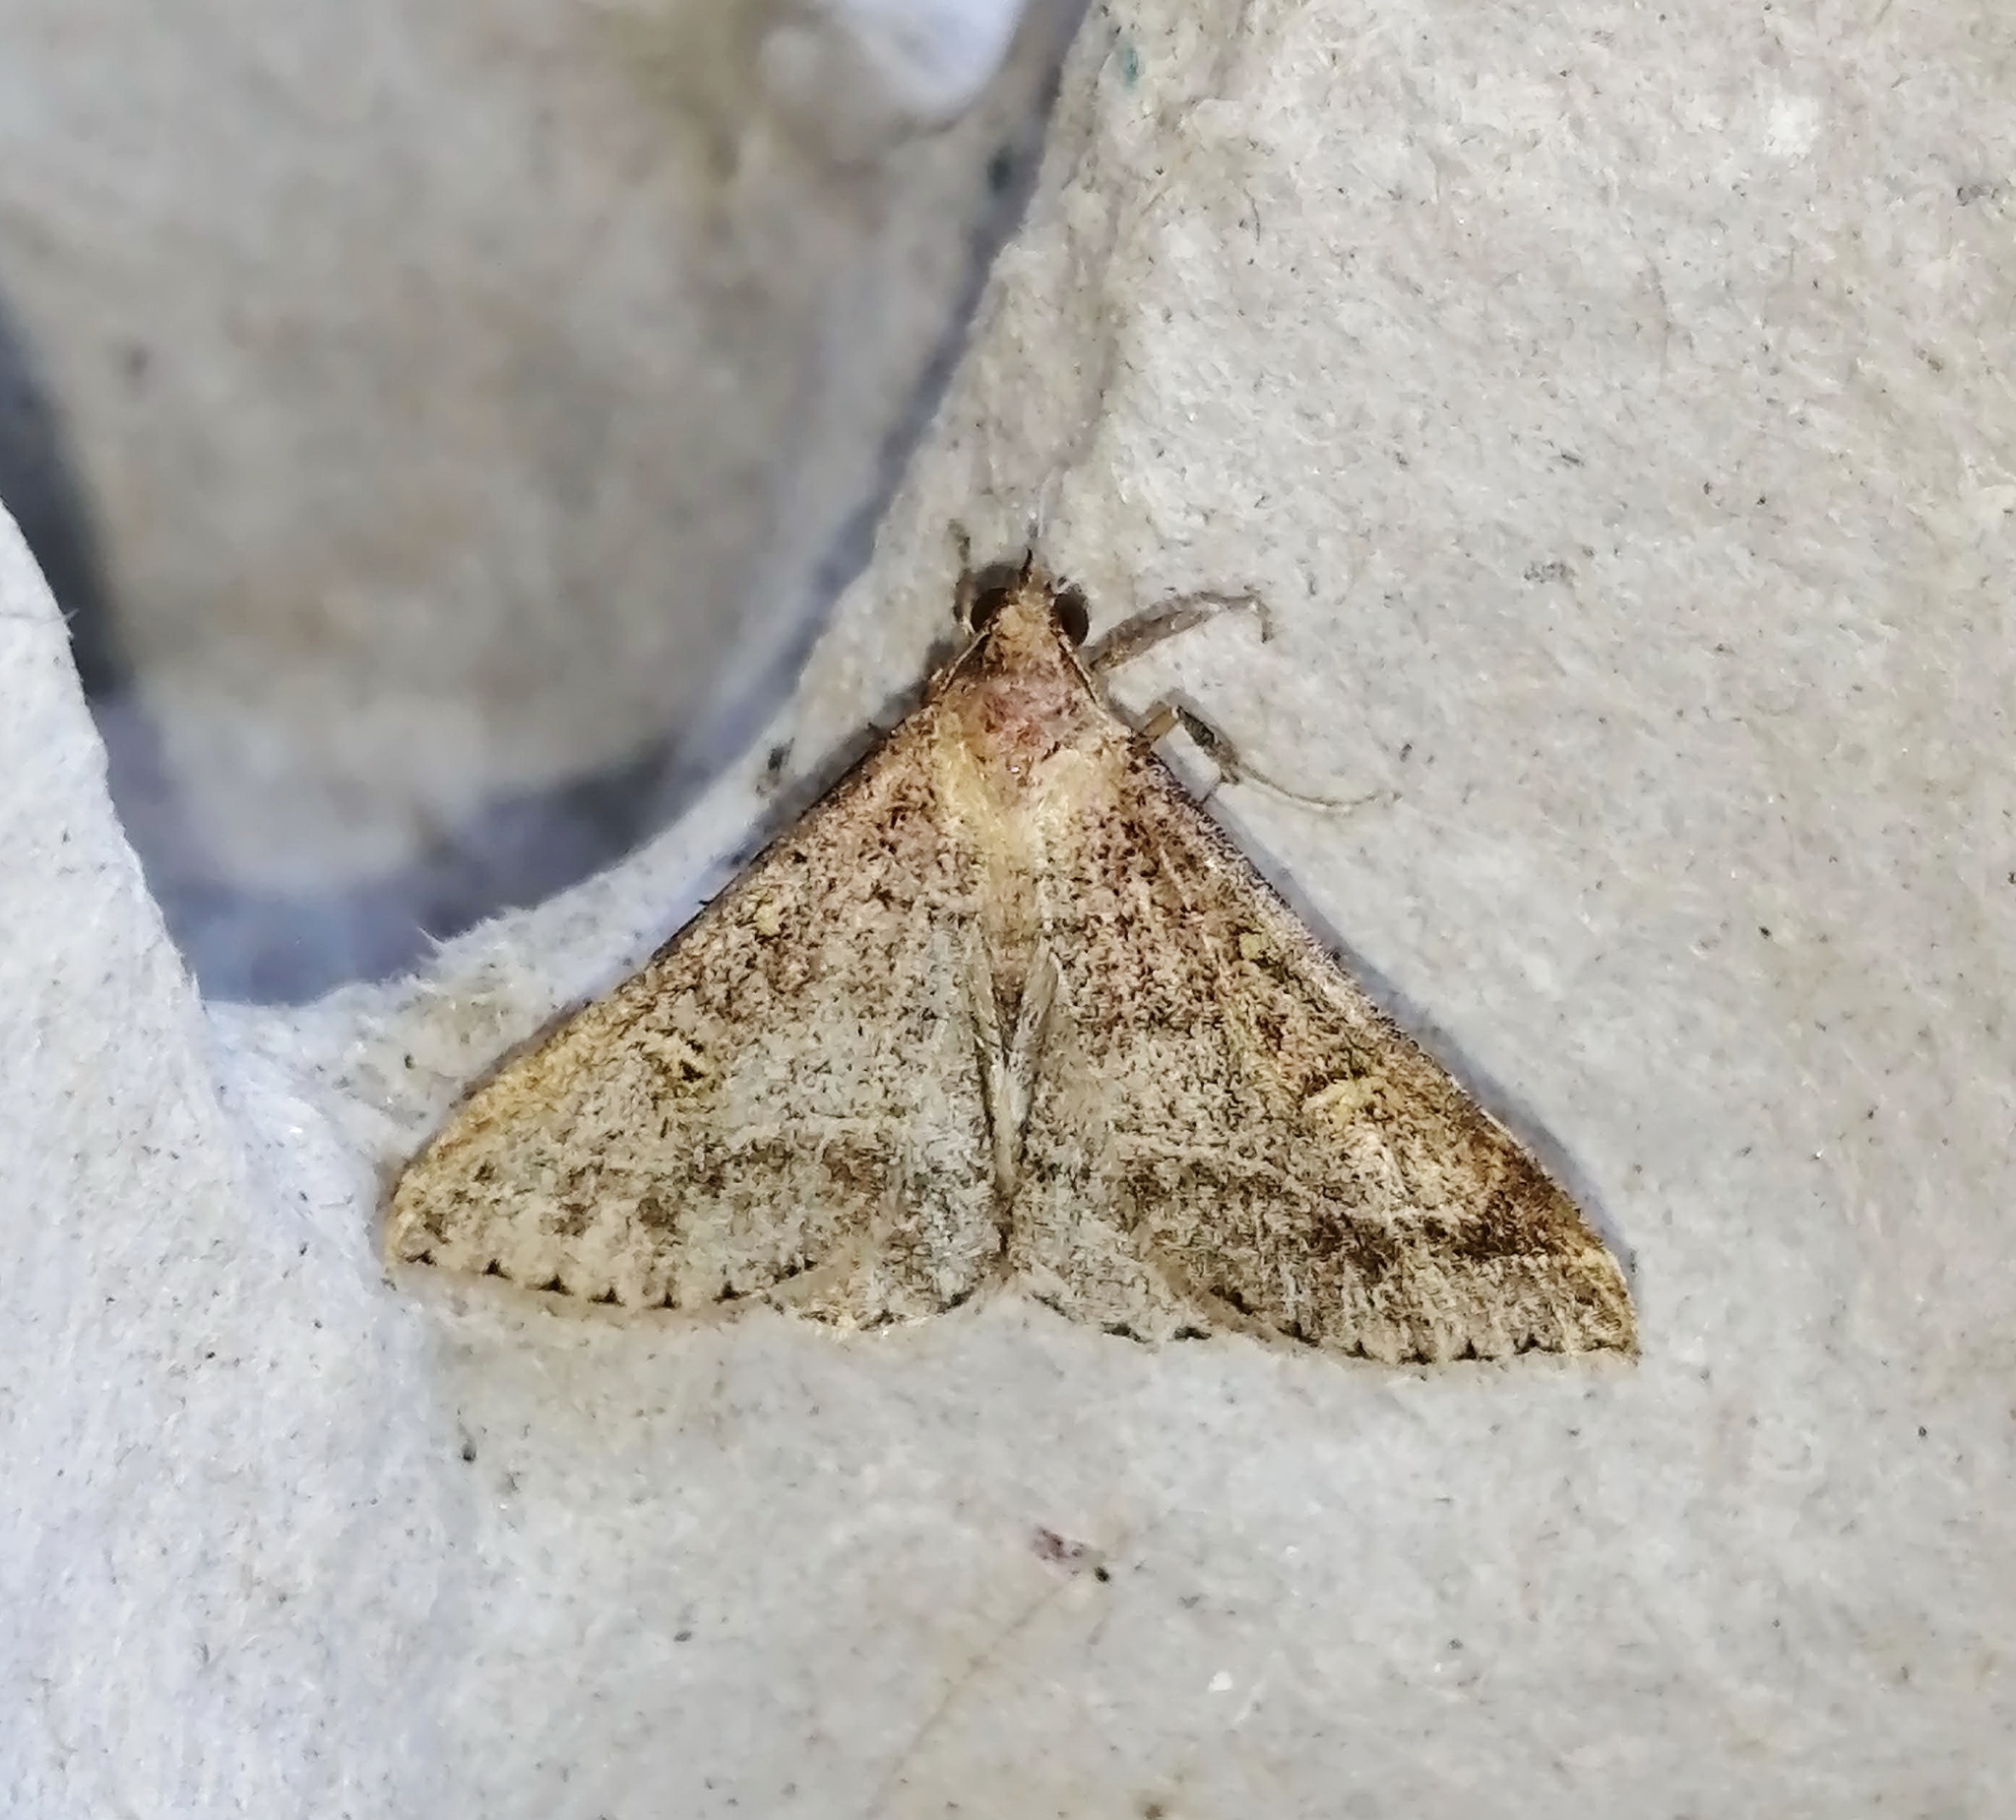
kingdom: Animalia
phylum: Arthropoda
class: Insecta
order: Lepidoptera
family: Erebidae
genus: Renia
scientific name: Renia flavipunctalis
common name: Yellow-spotted renia moth
